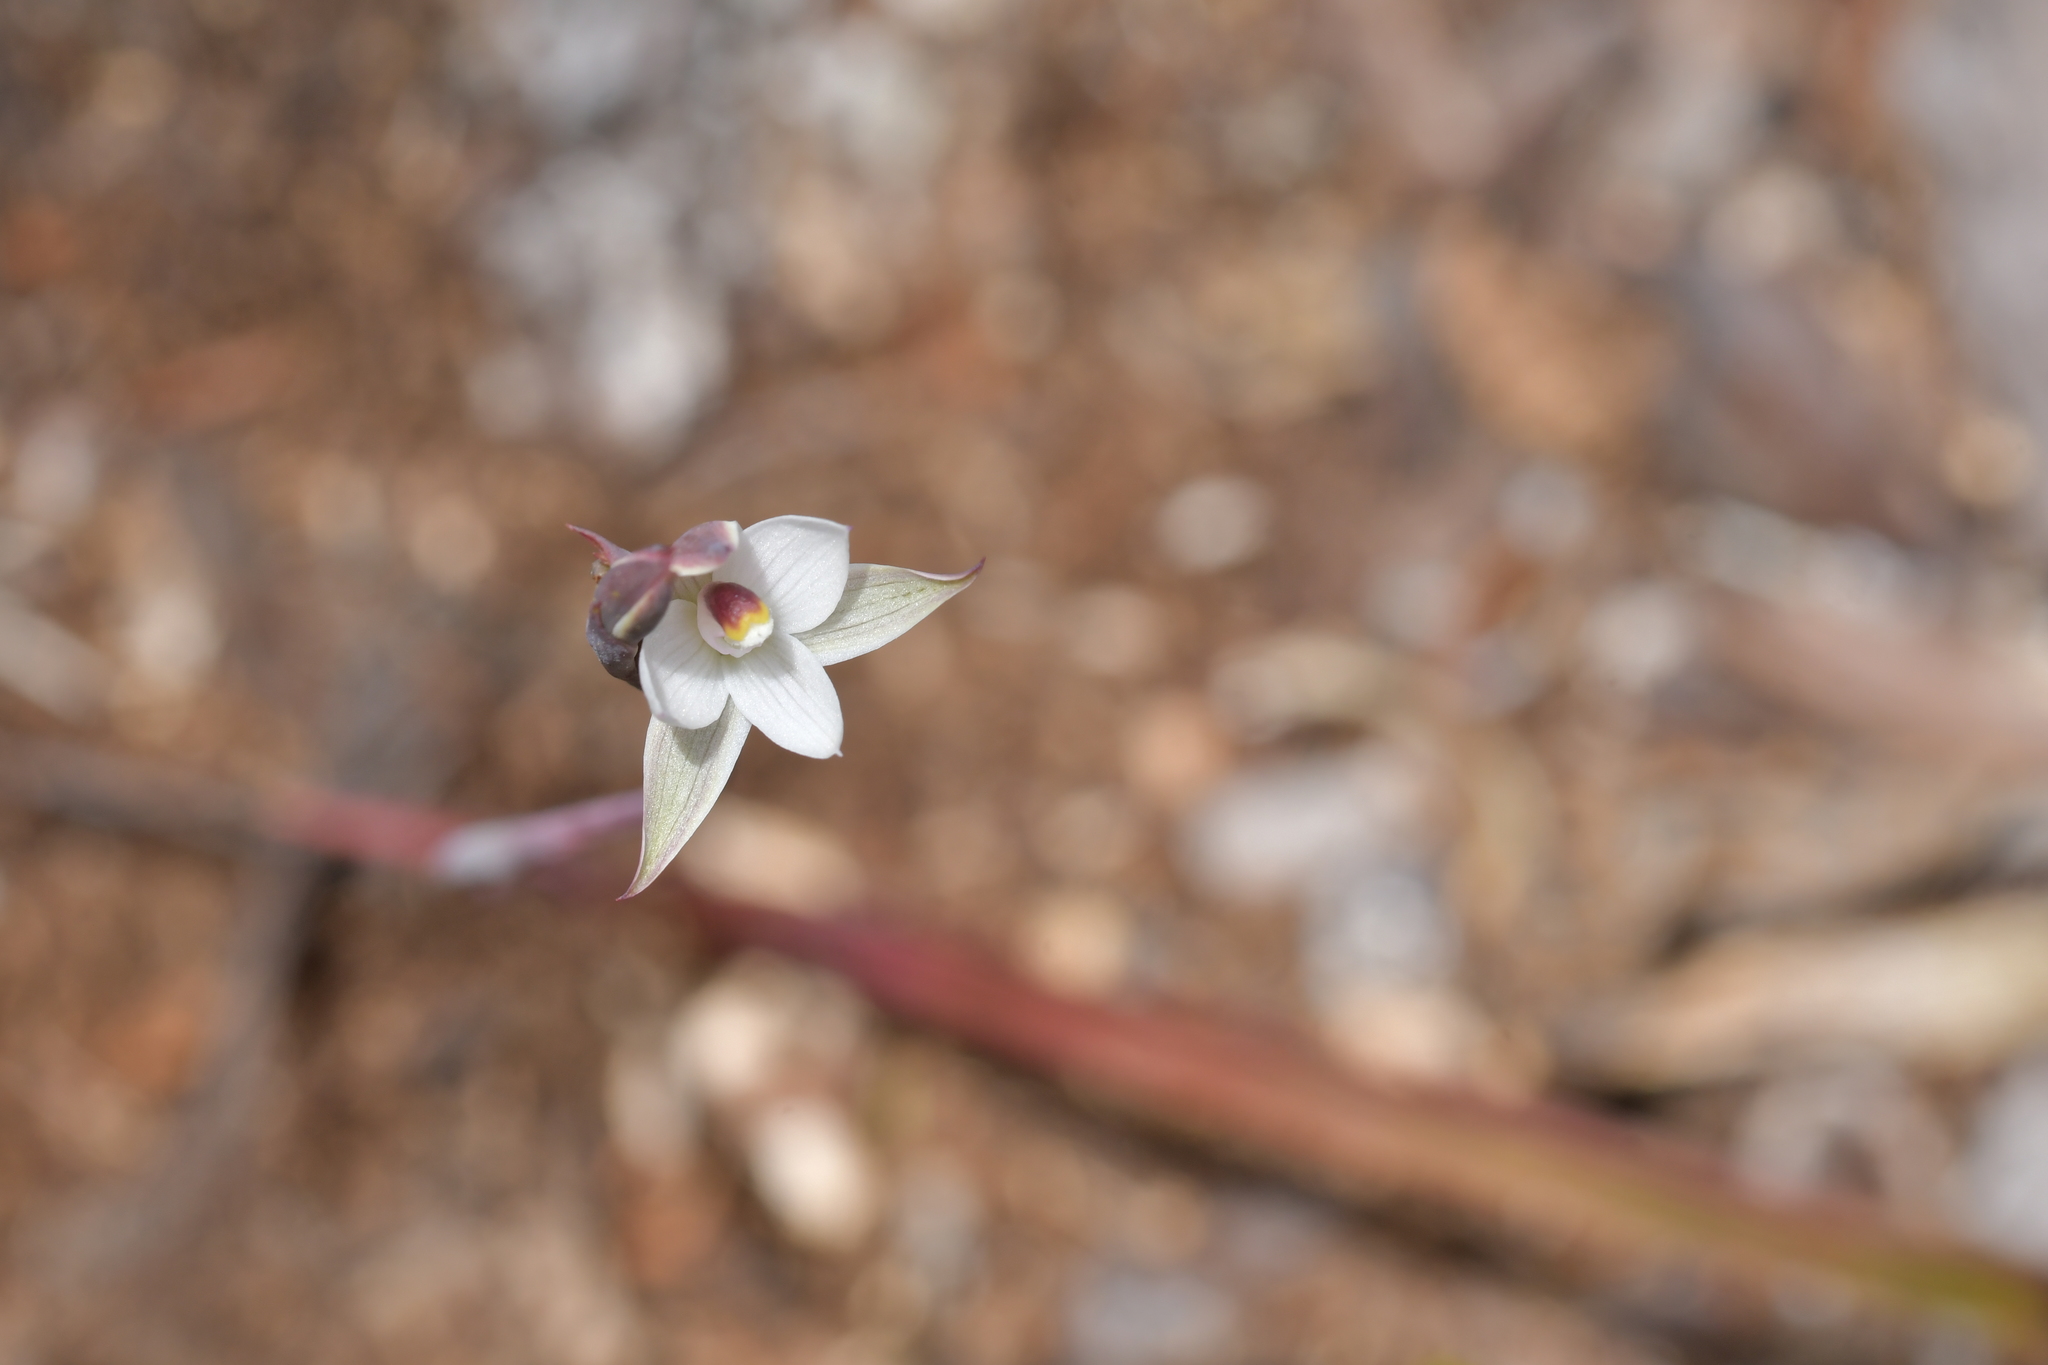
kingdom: Plantae
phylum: Tracheophyta
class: Liliopsida
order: Asparagales
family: Orchidaceae
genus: Thelymitra
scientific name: Thelymitra longifolia
